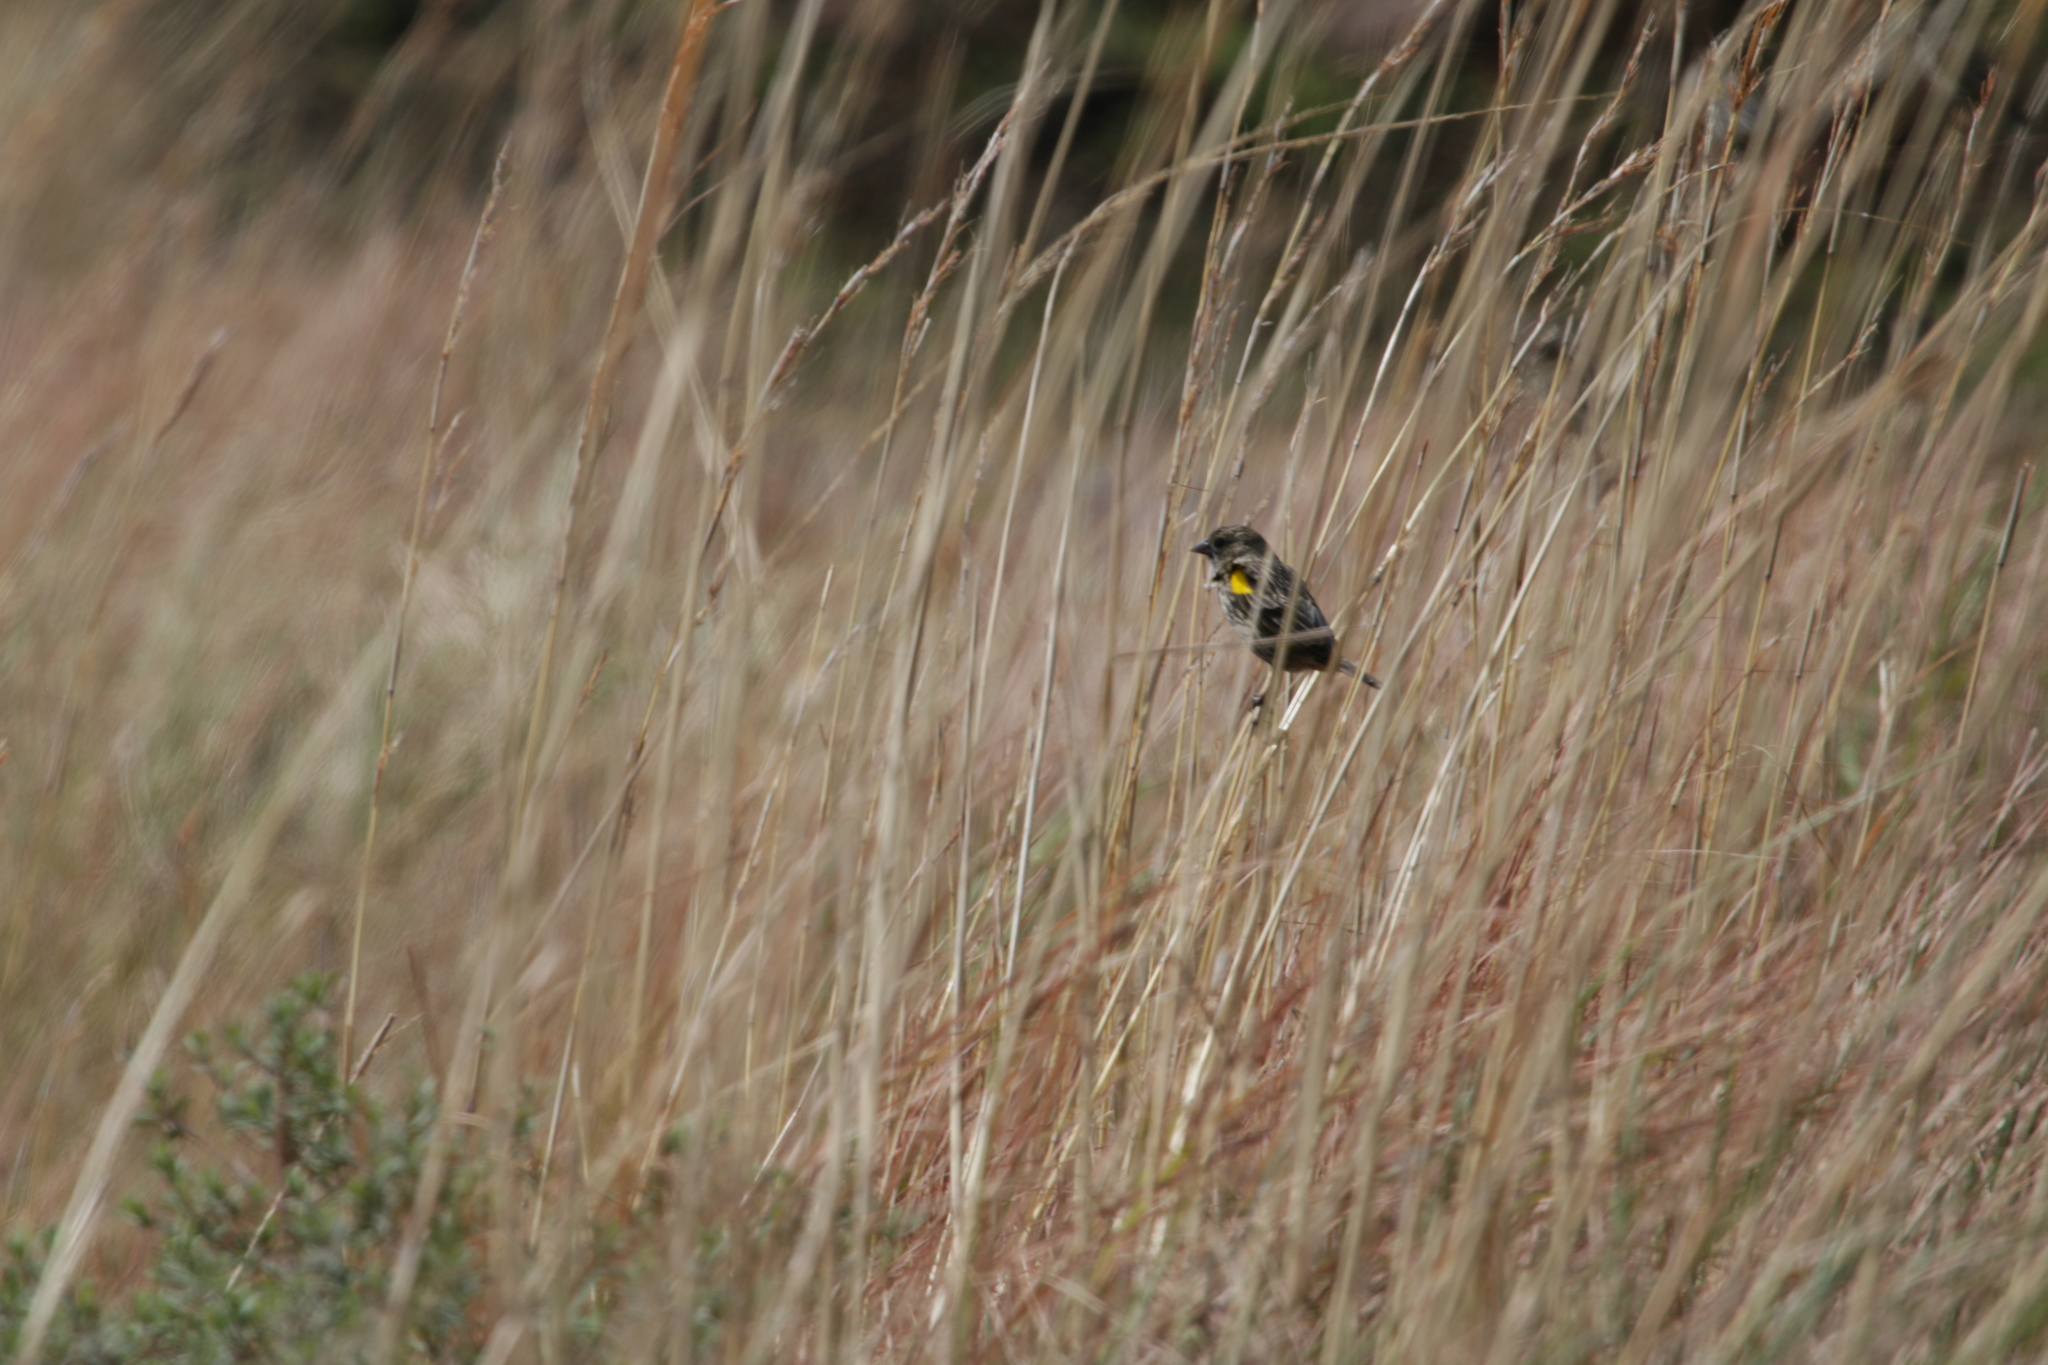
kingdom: Animalia
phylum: Chordata
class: Aves
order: Passeriformes
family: Ploceidae
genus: Euplectes
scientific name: Euplectes capensis
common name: Yellow bishop
